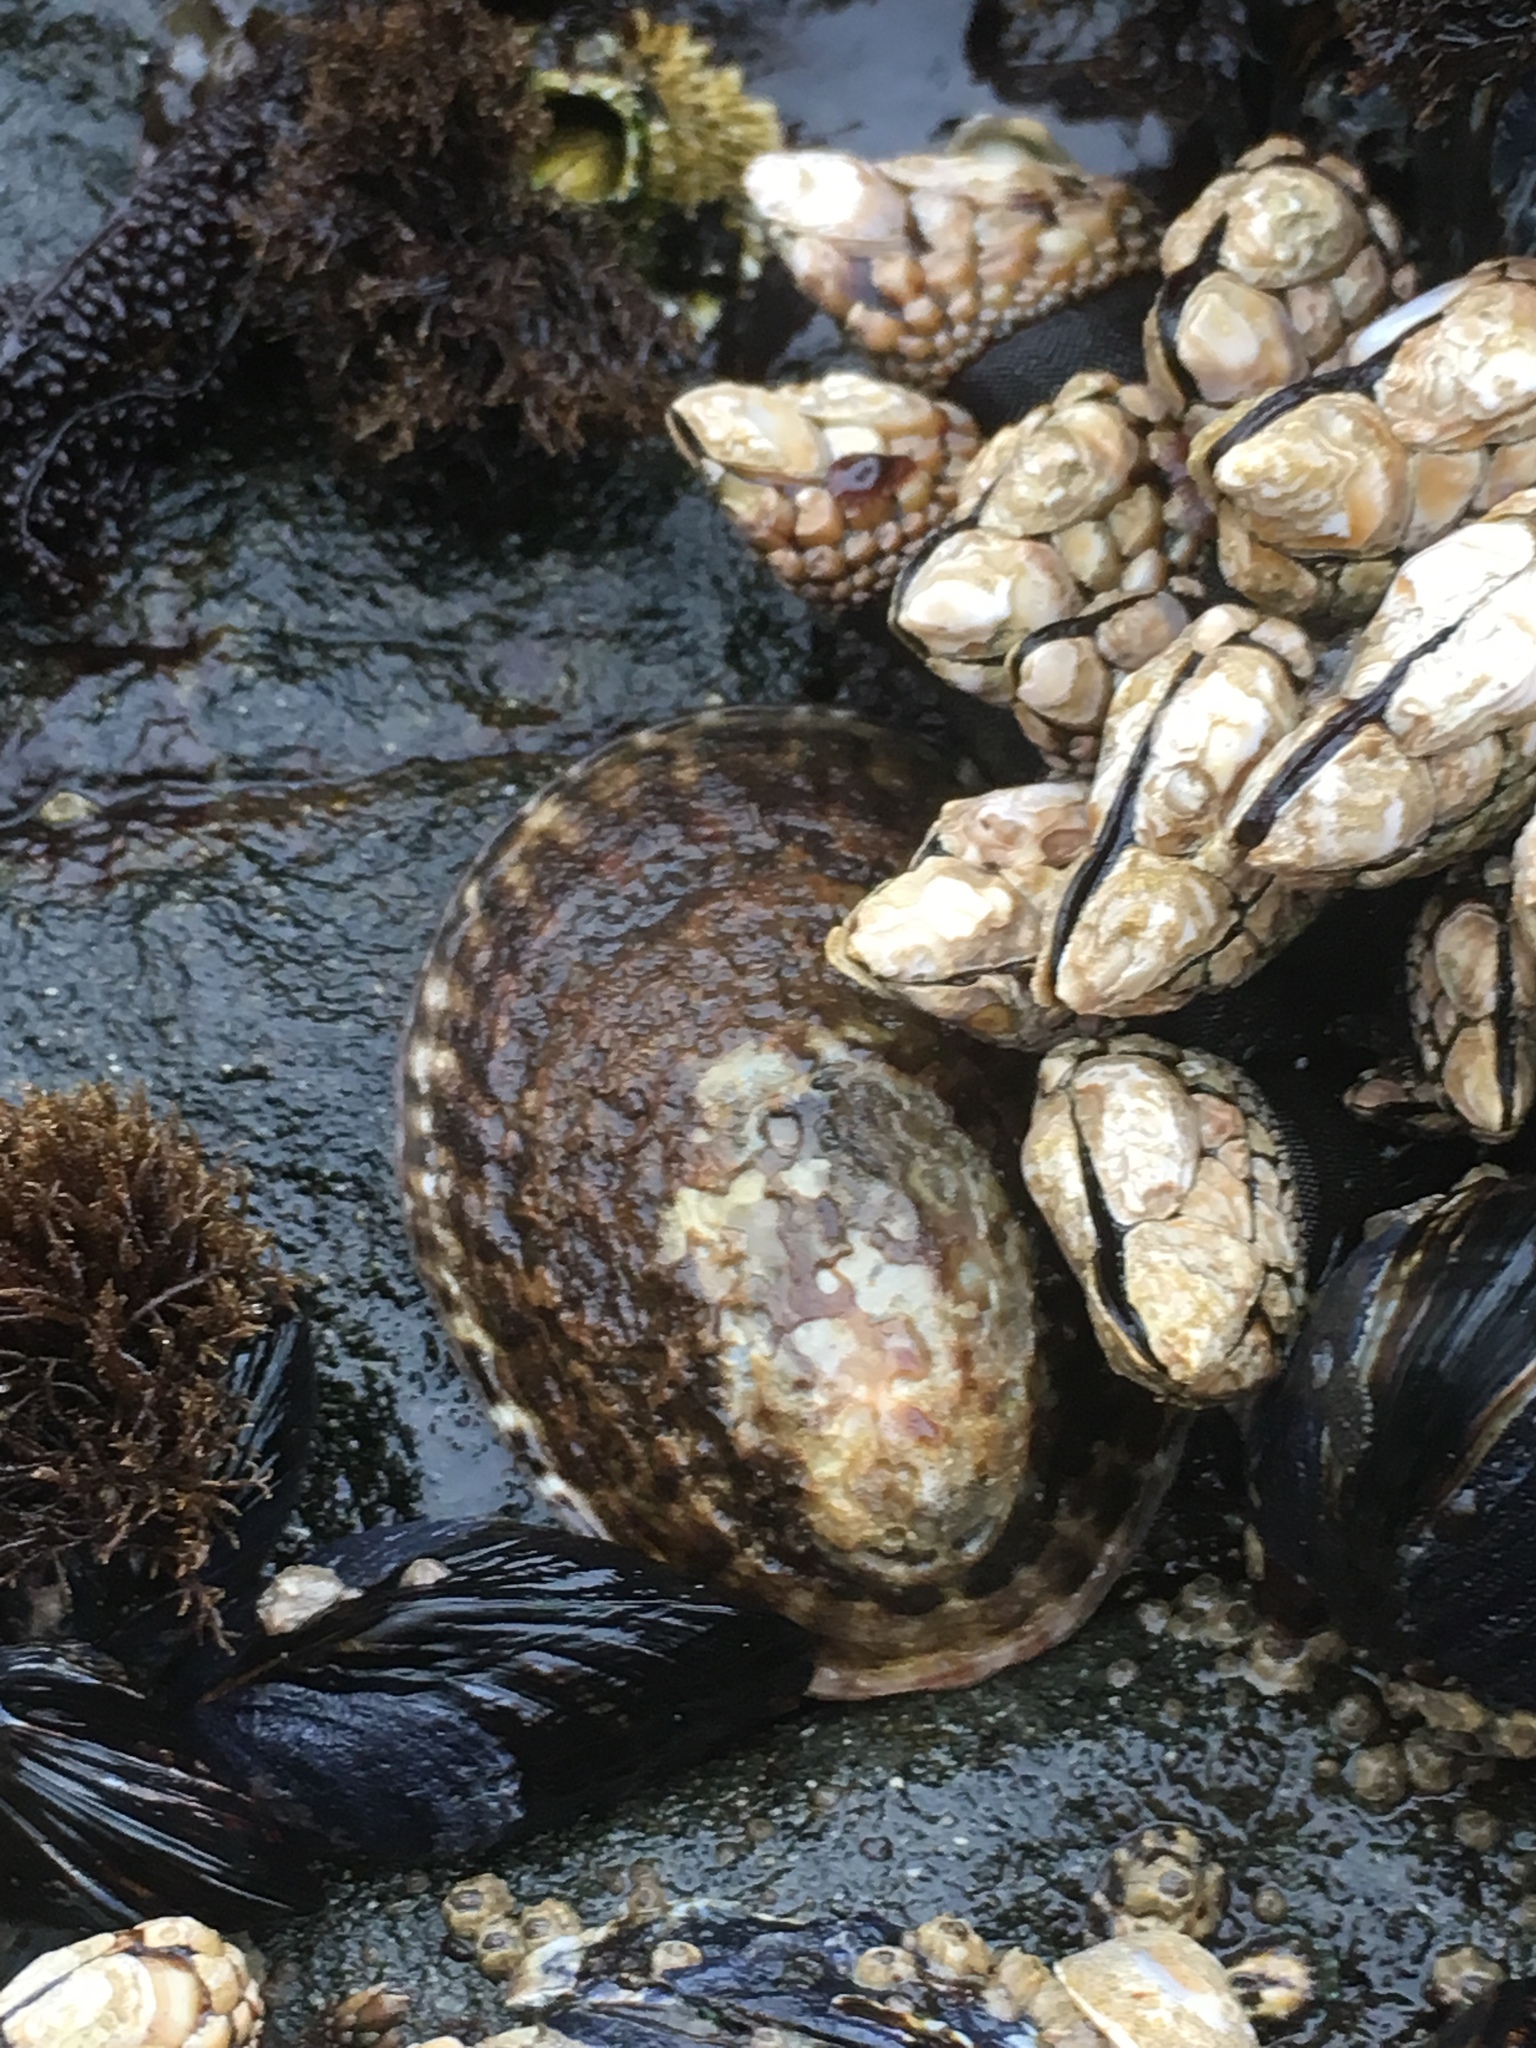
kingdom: Animalia
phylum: Mollusca
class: Gastropoda
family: Lottiidae
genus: Lottia
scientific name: Lottia gigantea
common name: Owl limpet
